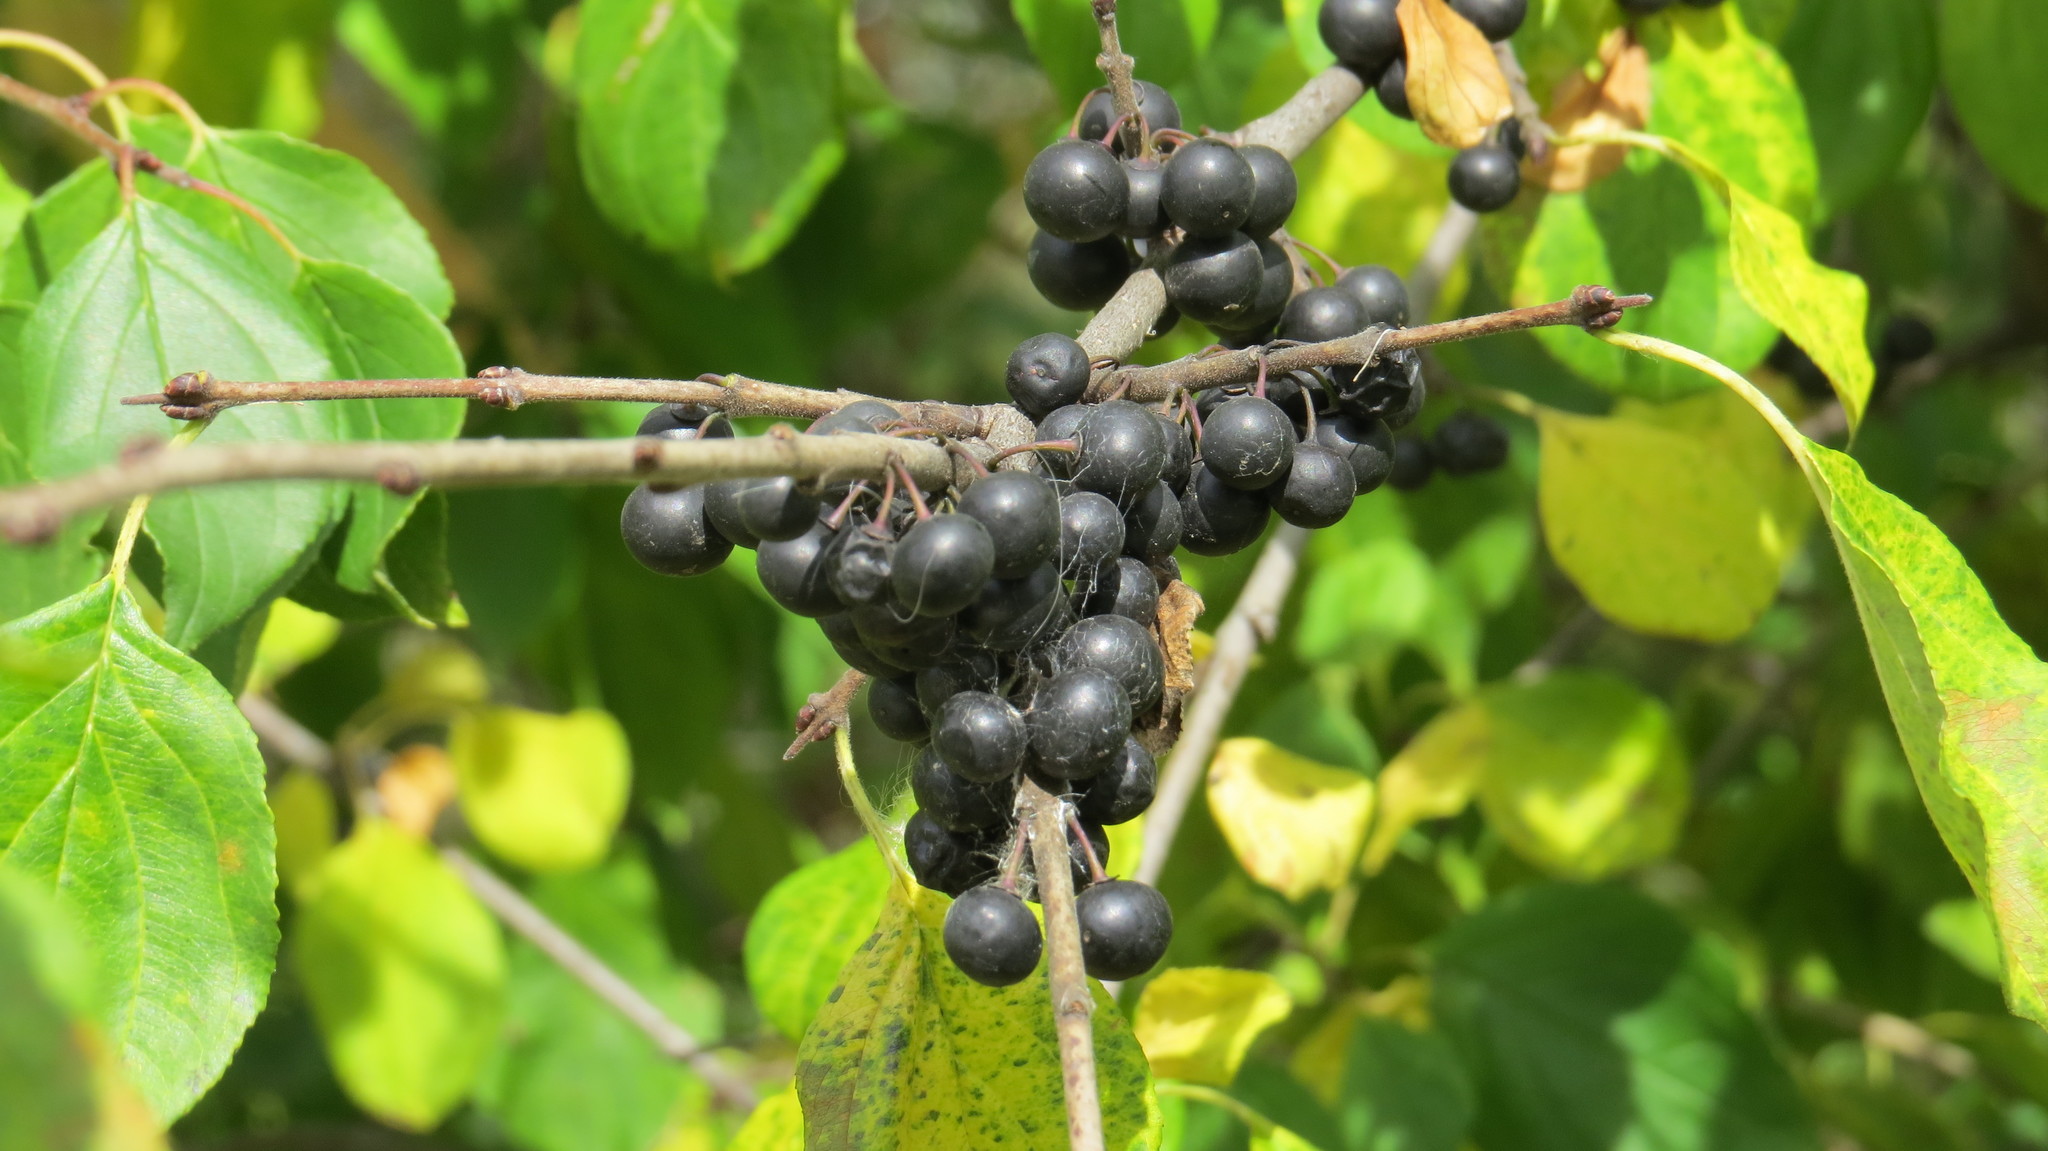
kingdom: Plantae
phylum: Tracheophyta
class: Magnoliopsida
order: Rosales
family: Rhamnaceae
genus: Rhamnus
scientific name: Rhamnus cathartica
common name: Common buckthorn
